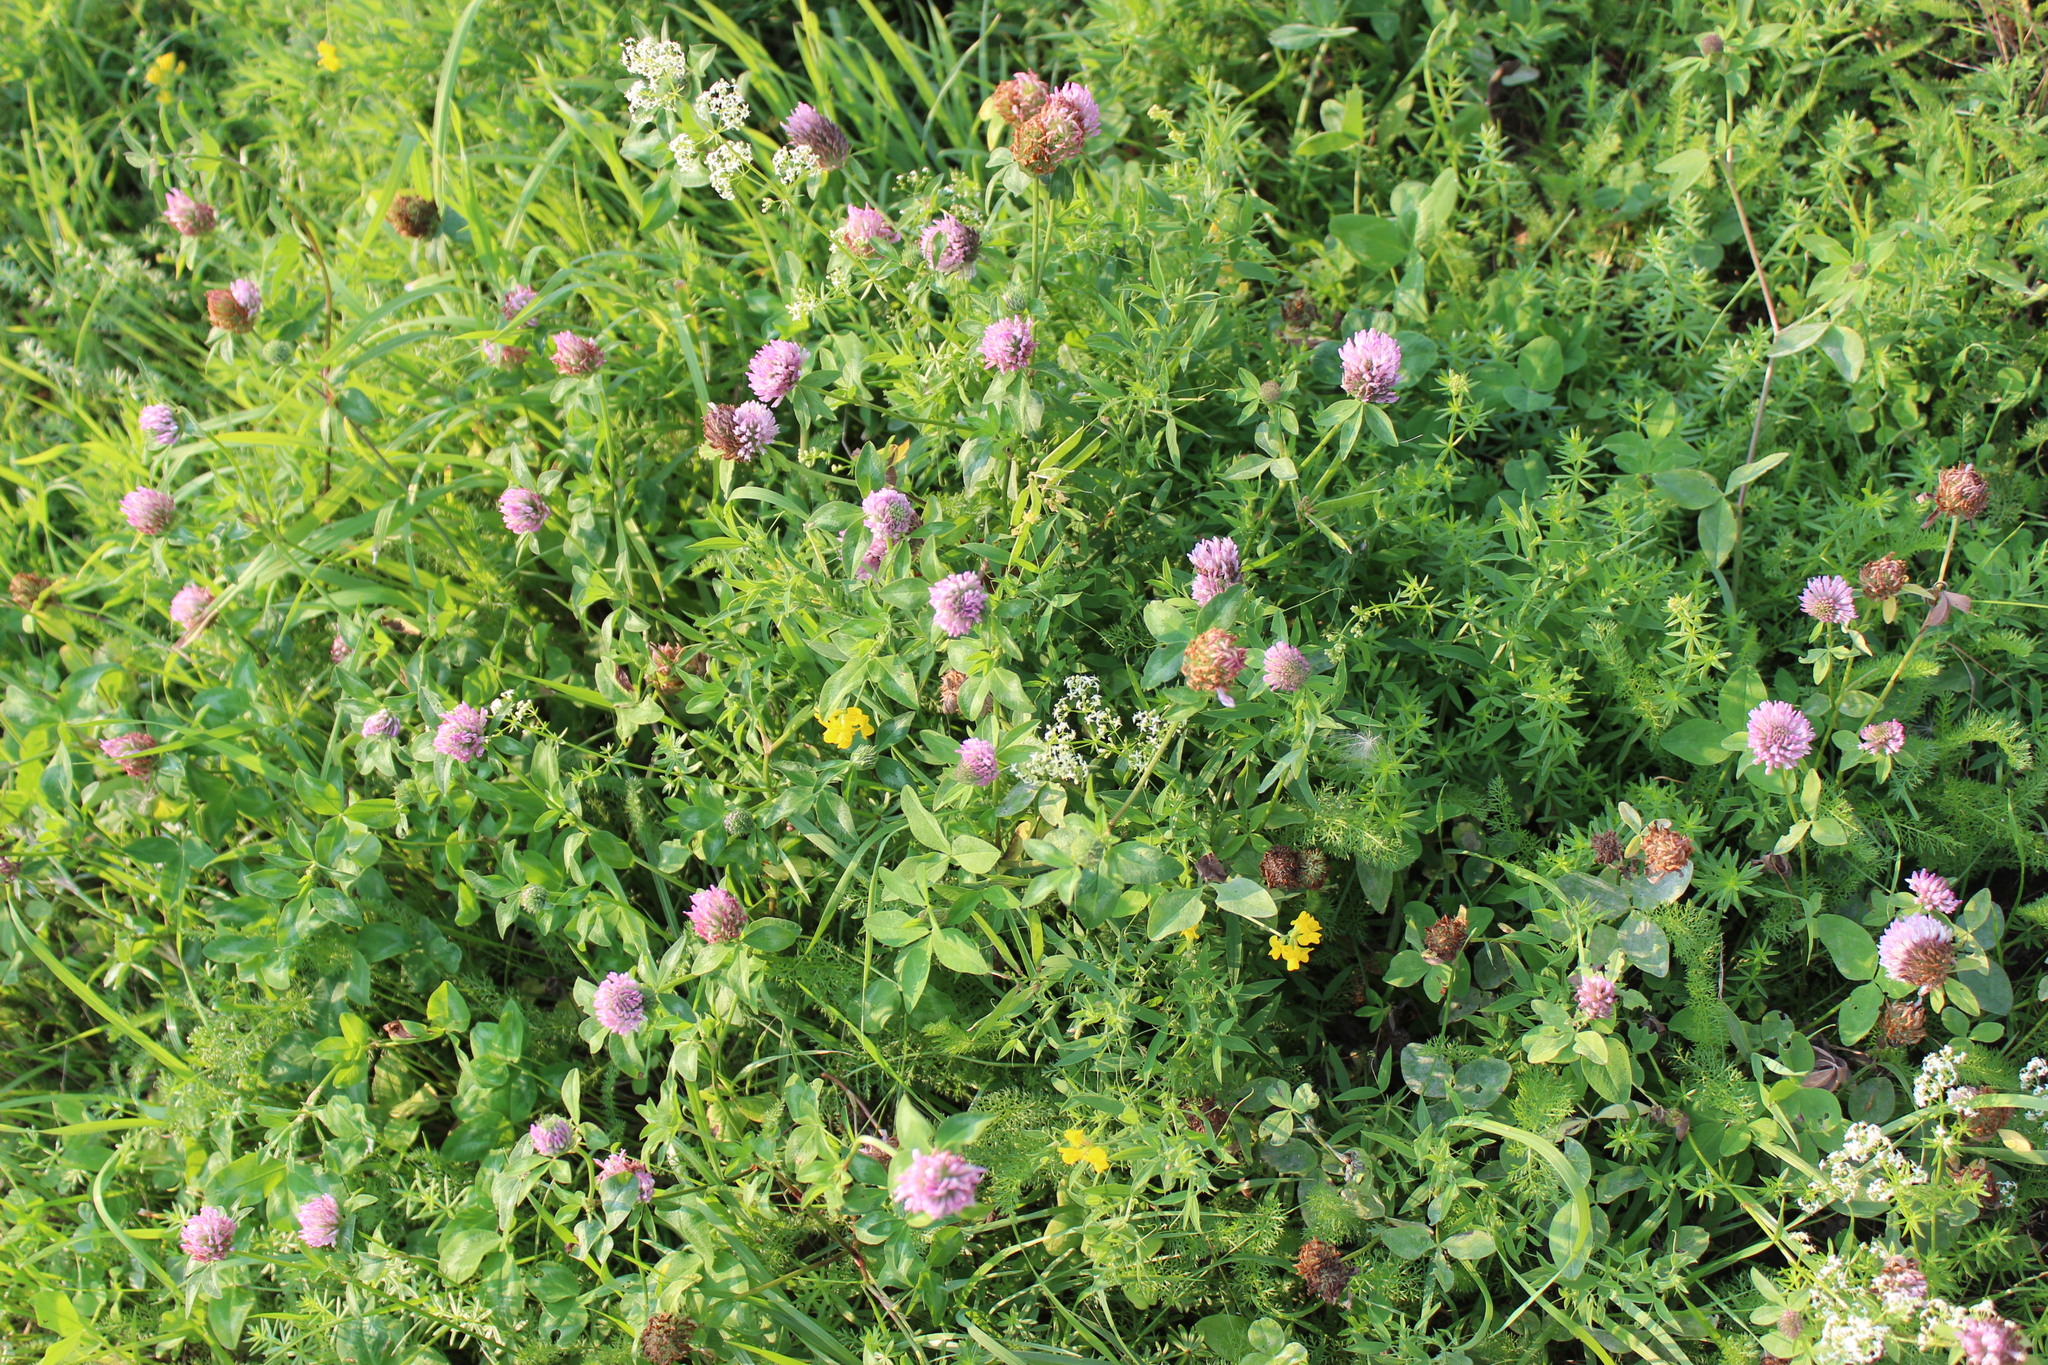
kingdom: Plantae
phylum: Tracheophyta
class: Magnoliopsida
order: Fabales
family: Fabaceae
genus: Trifolium
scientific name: Trifolium pratense
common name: Red clover
